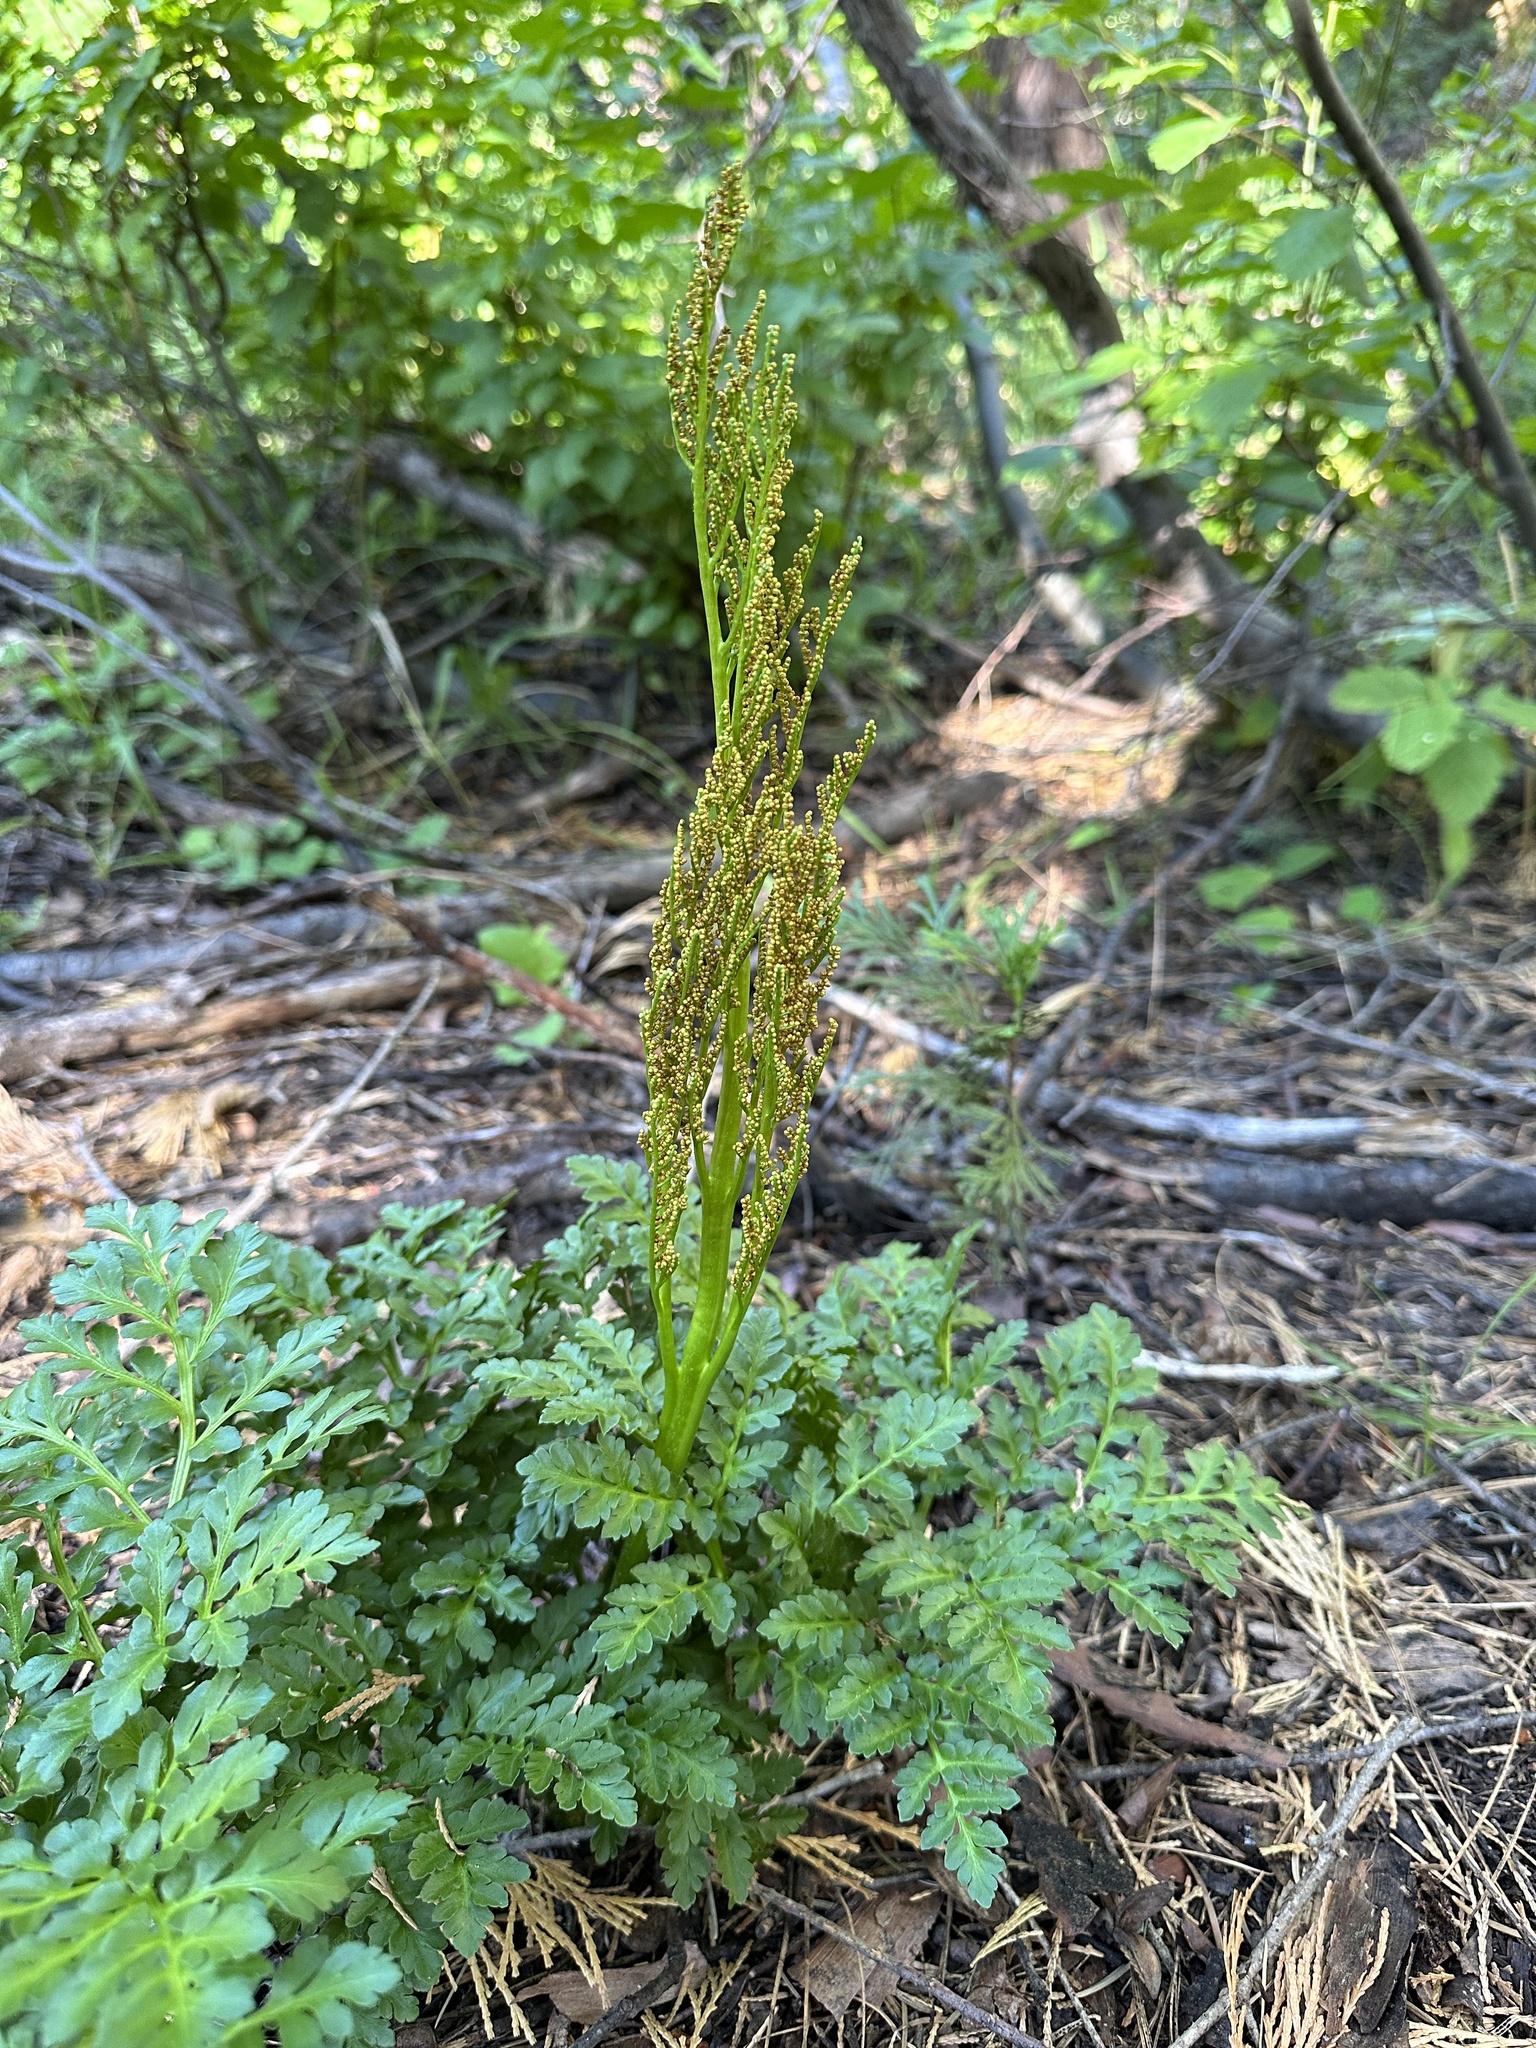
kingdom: Plantae
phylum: Tracheophyta
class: Polypodiopsida
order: Ophioglossales
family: Ophioglossaceae
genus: Sceptridium
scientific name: Sceptridium multifidum
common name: Leathery grape fern
